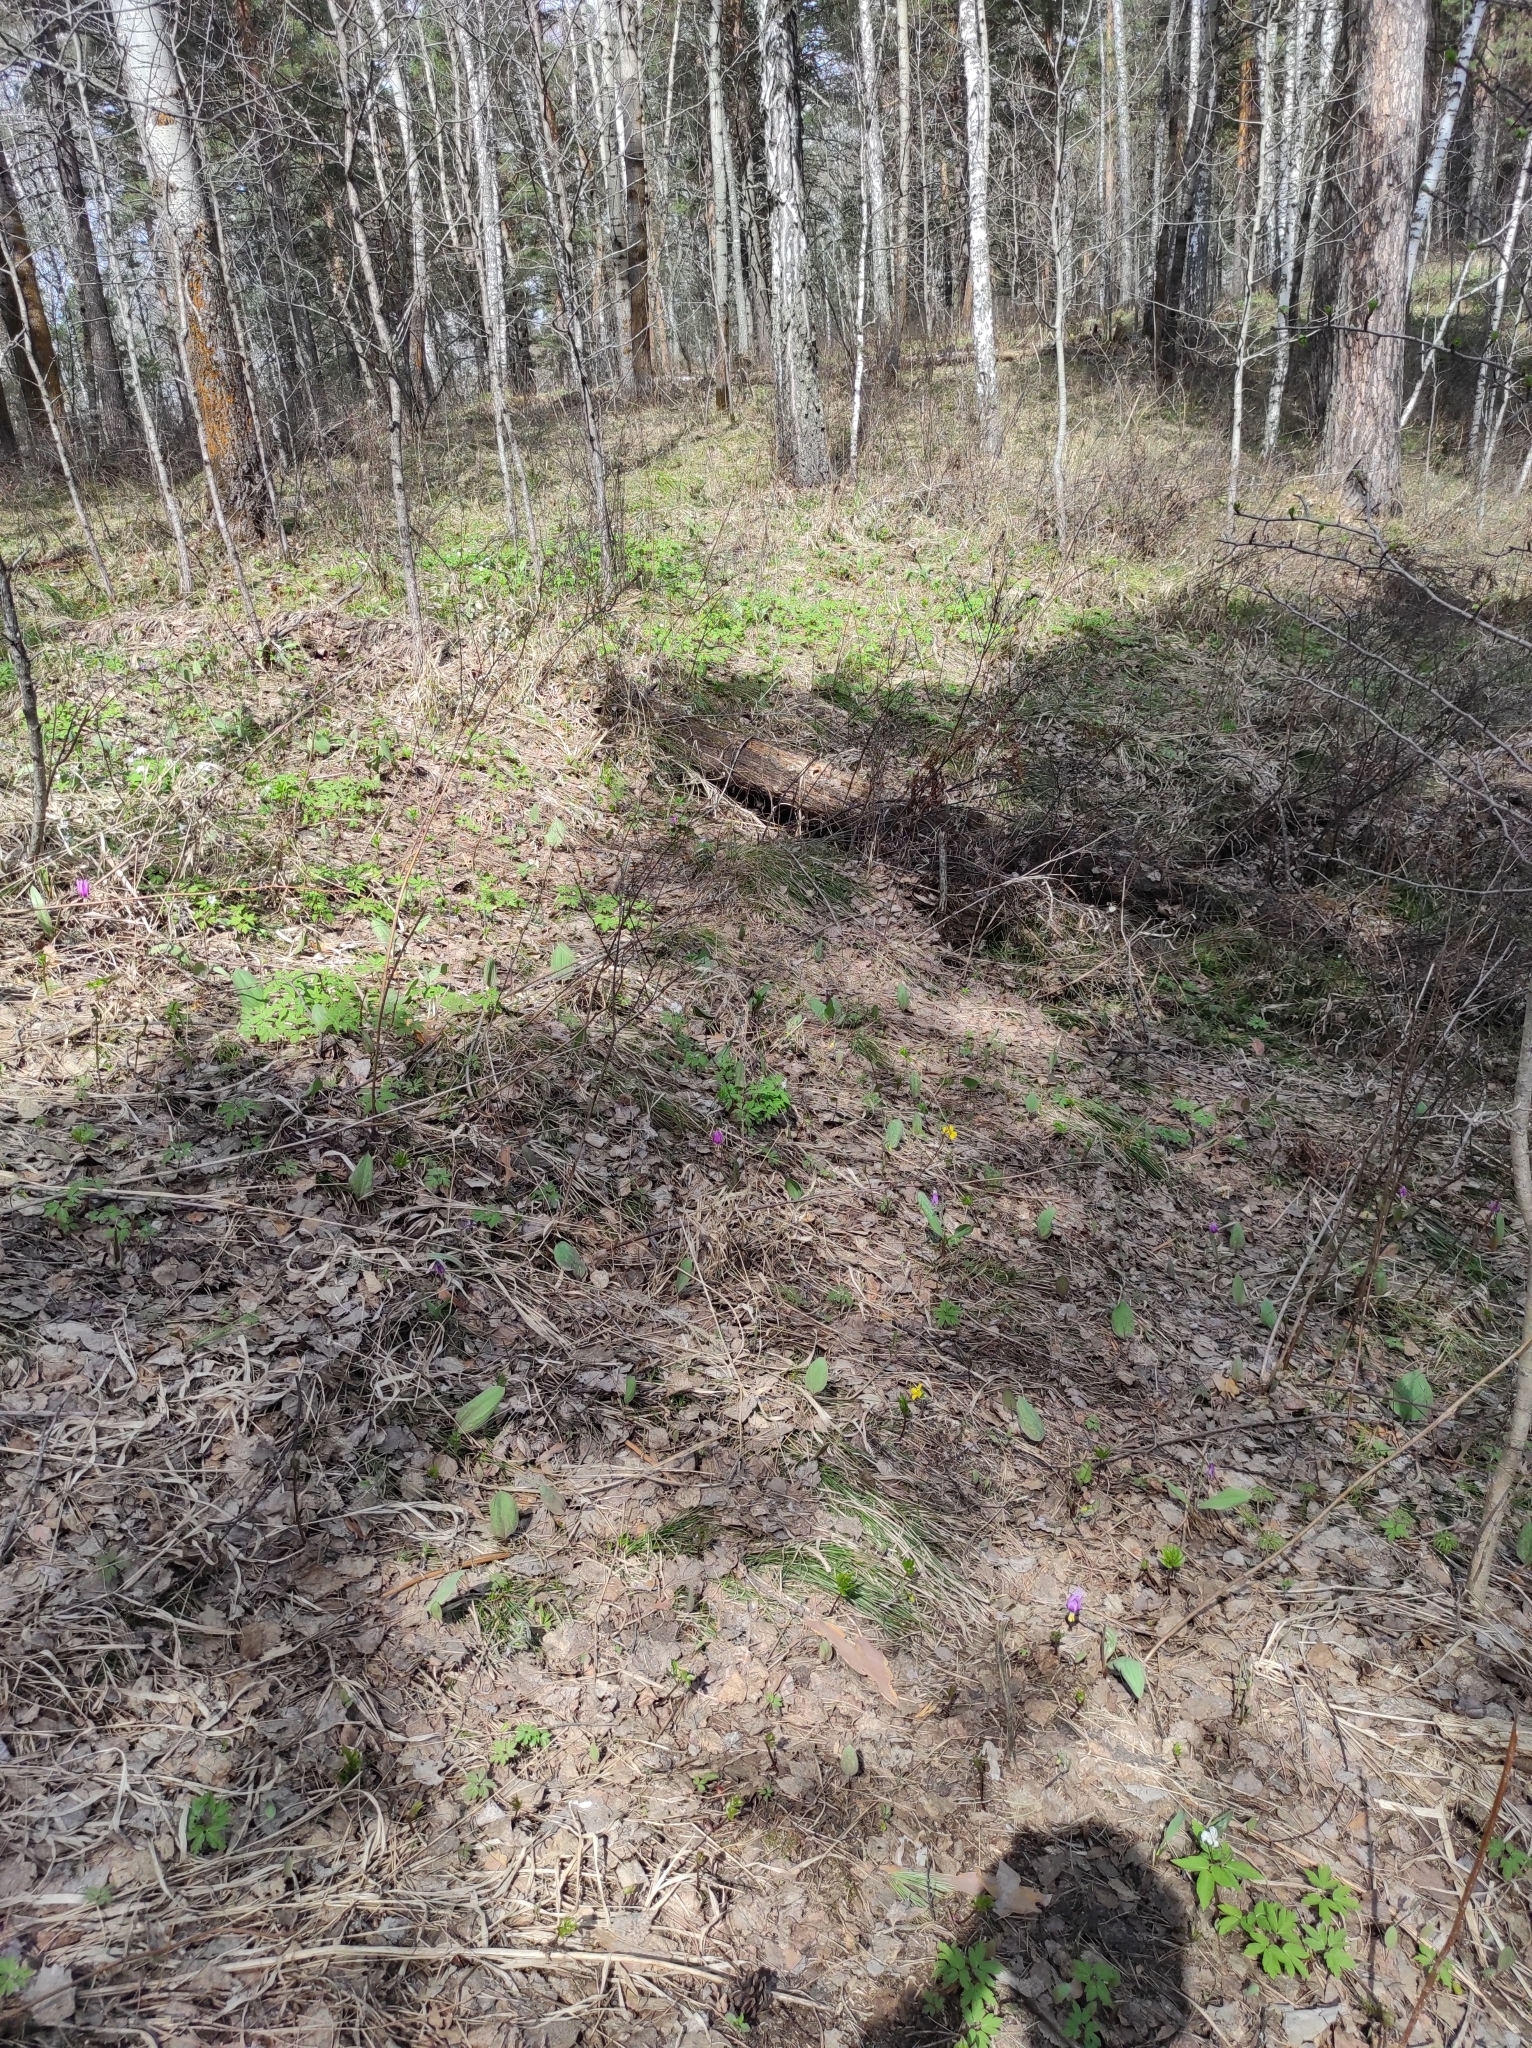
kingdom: Plantae
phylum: Tracheophyta
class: Liliopsida
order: Liliales
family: Liliaceae
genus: Erythronium
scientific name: Erythronium sibiricum
